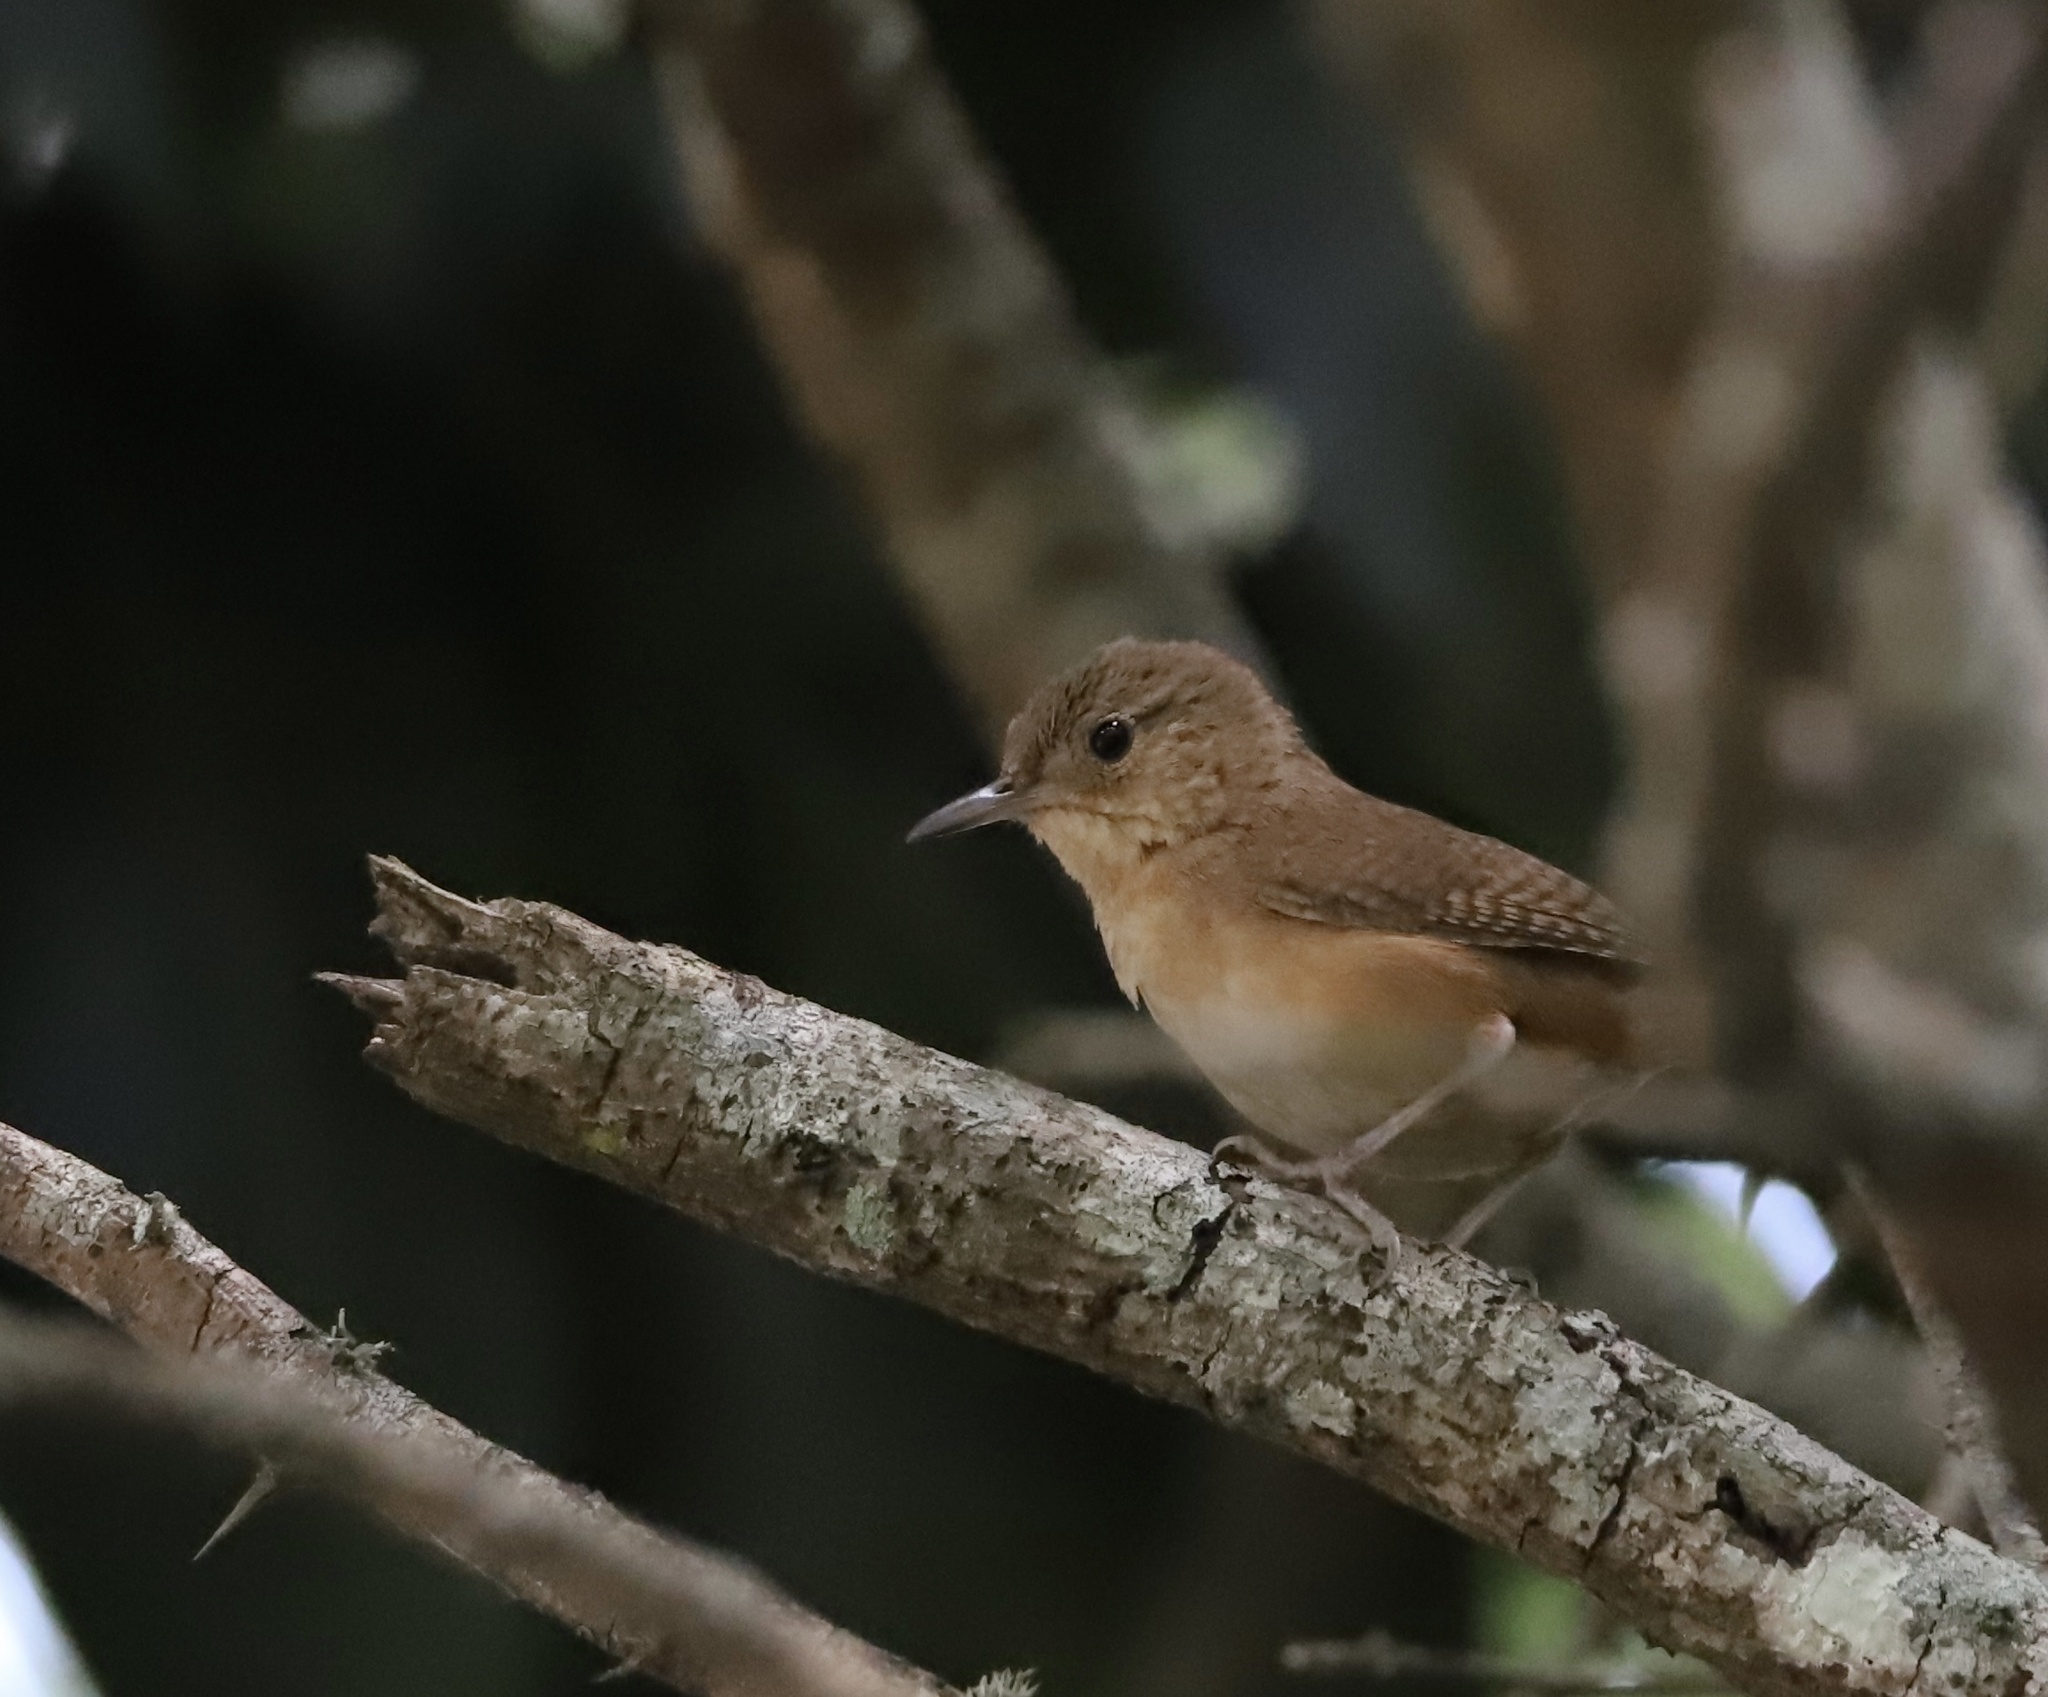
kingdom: Animalia
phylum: Chordata
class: Aves
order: Passeriformes
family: Troglodytidae
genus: Troglodytes
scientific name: Troglodytes aedon
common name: House wren
